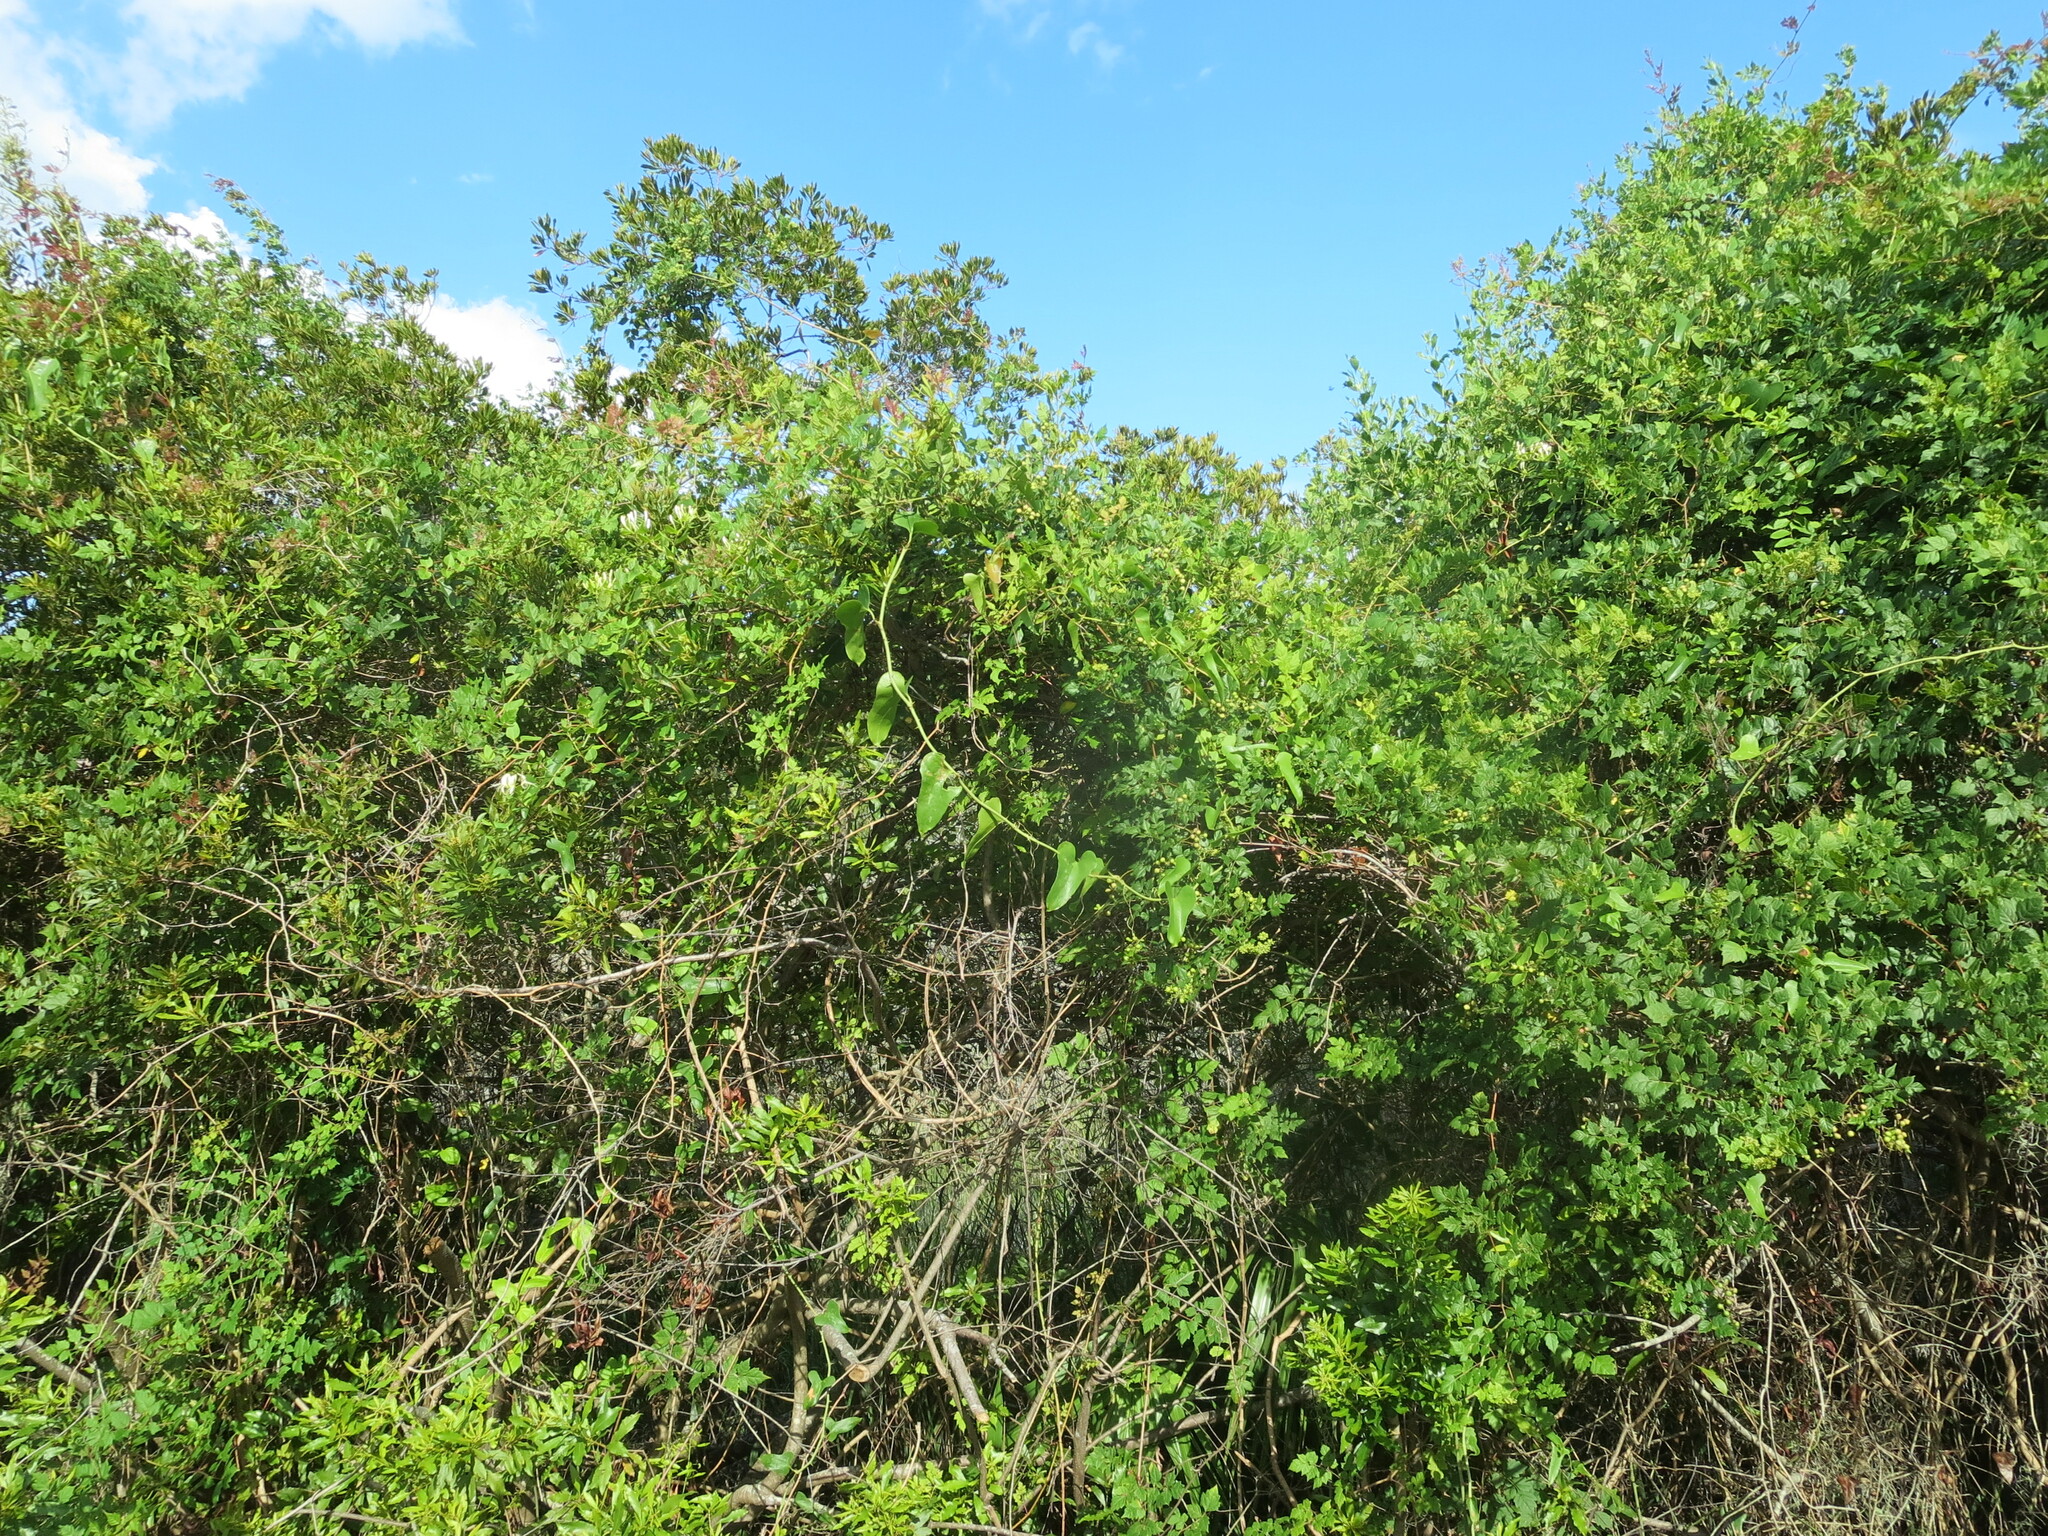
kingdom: Plantae
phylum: Tracheophyta
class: Magnoliopsida
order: Vitales
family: Vitaceae
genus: Nekemias
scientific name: Nekemias arborea
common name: Peppervine
